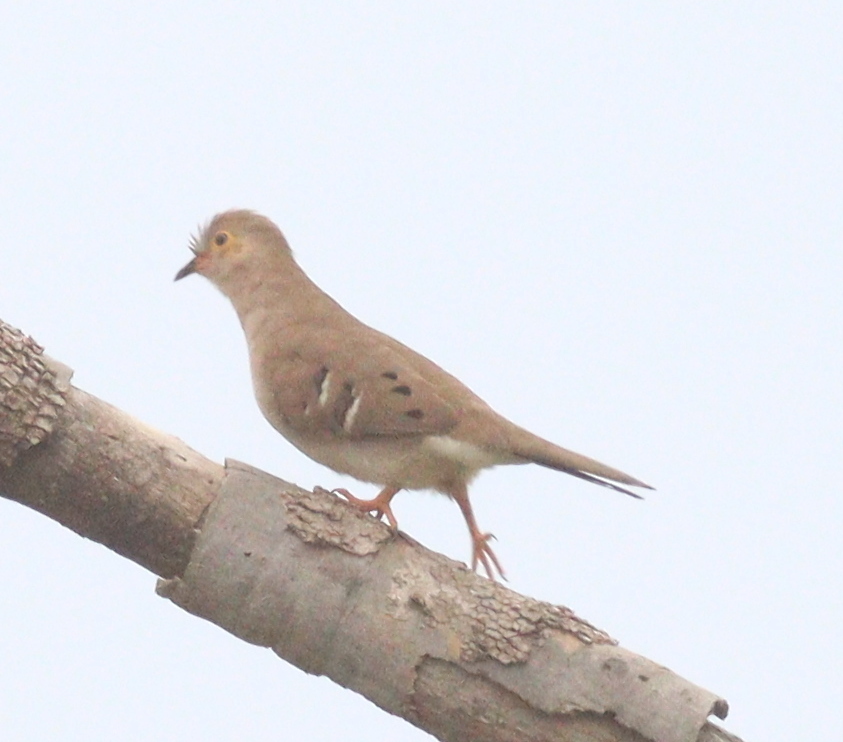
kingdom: Animalia
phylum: Chordata
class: Aves
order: Columbiformes
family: Columbidae
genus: Uropelia
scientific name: Uropelia campestris
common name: Long-tailed ground dove
